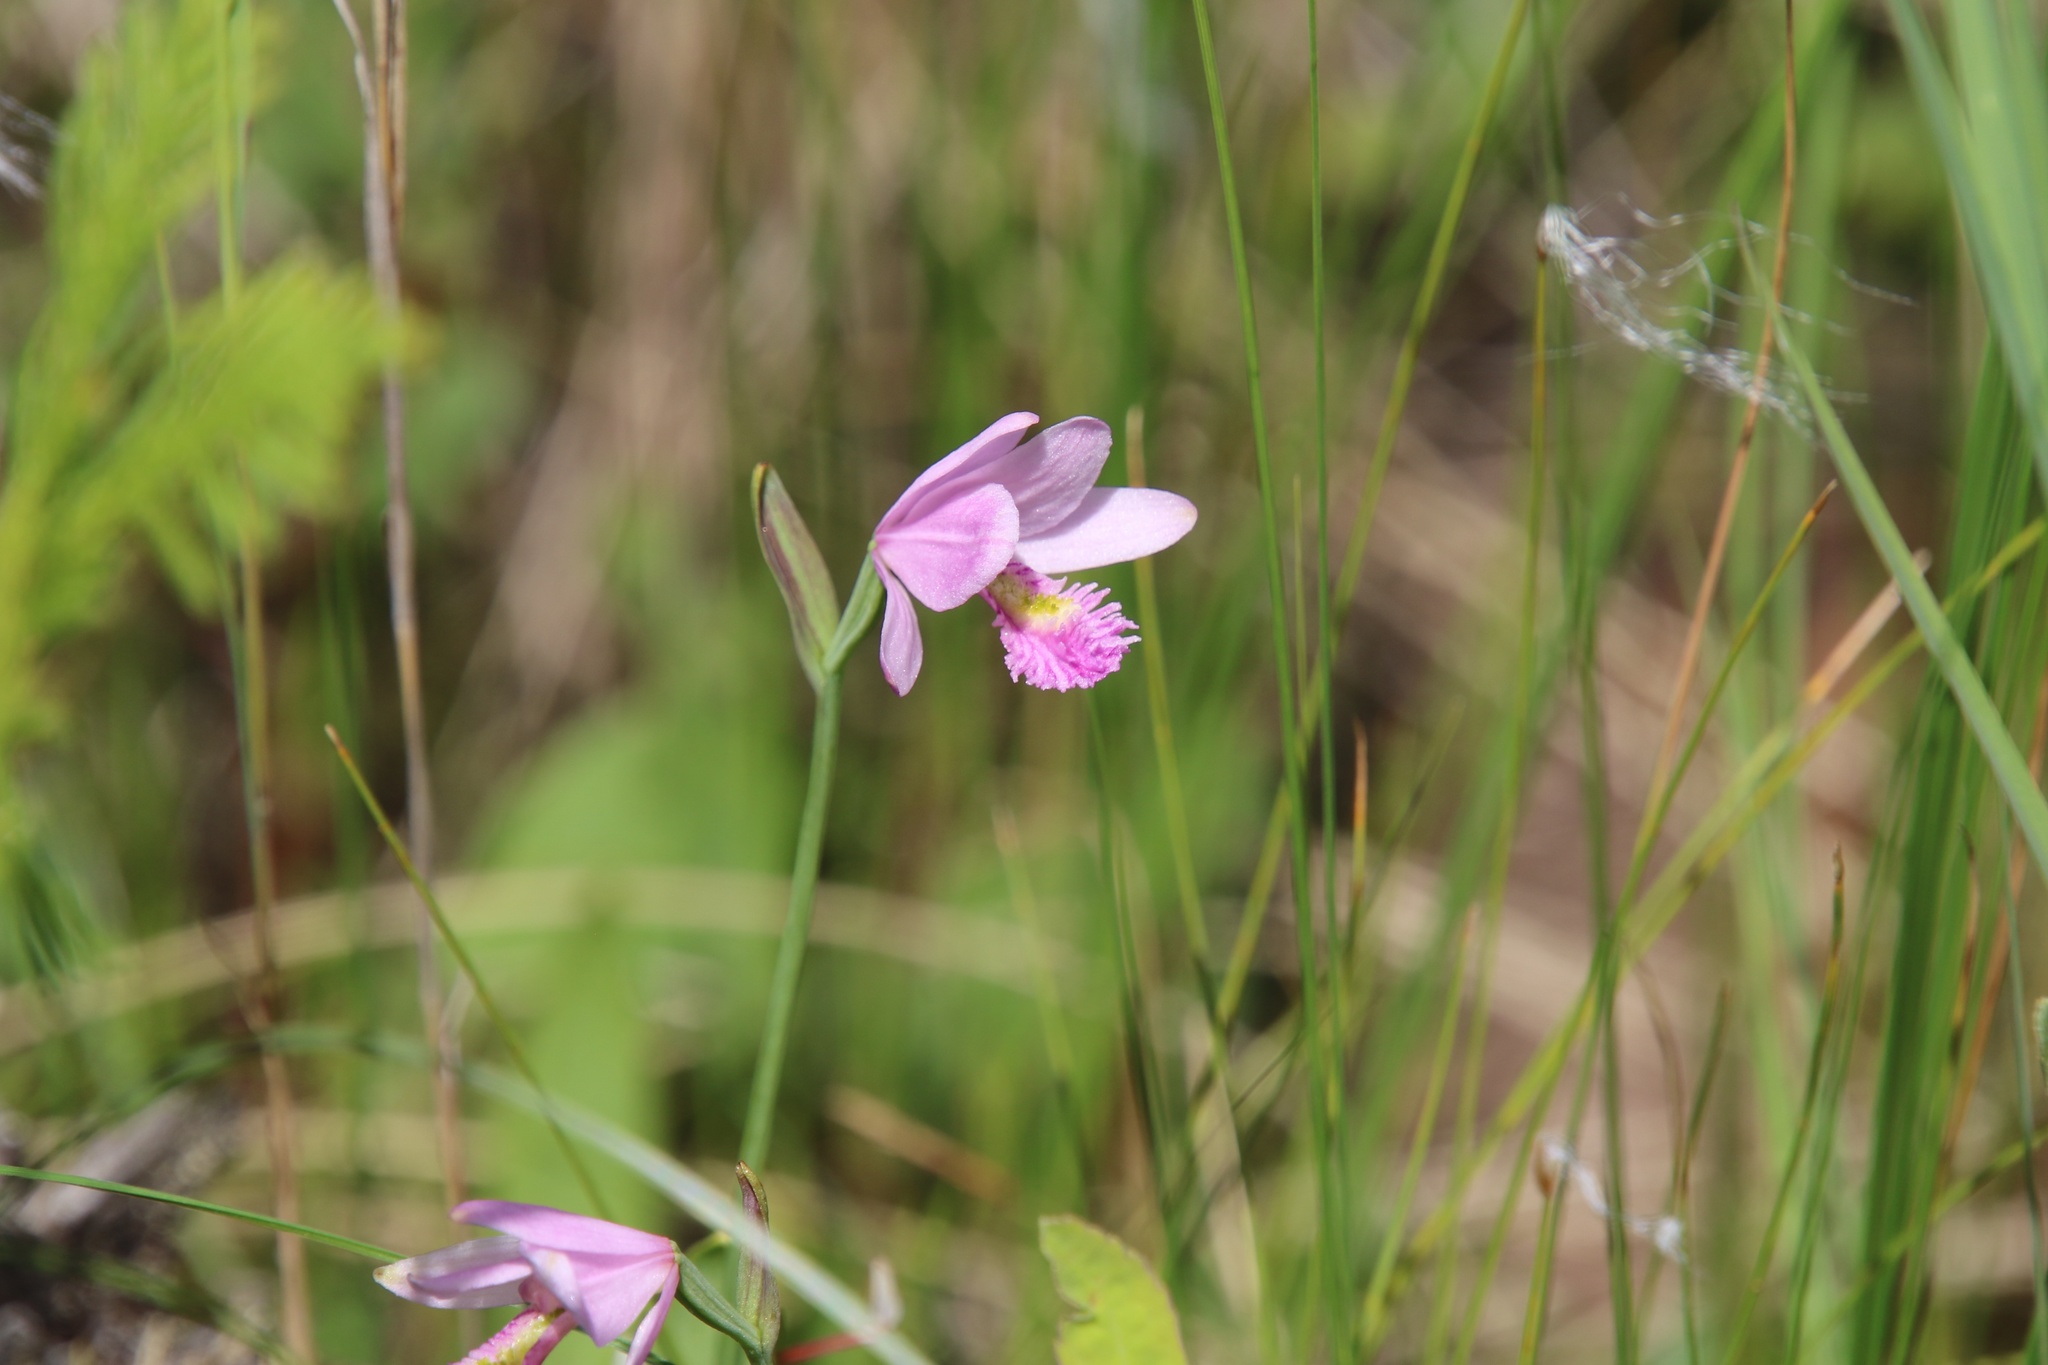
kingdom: Plantae
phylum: Tracheophyta
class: Liliopsida
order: Asparagales
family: Orchidaceae
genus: Pogonia
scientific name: Pogonia ophioglossoides
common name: Rose pogonia
